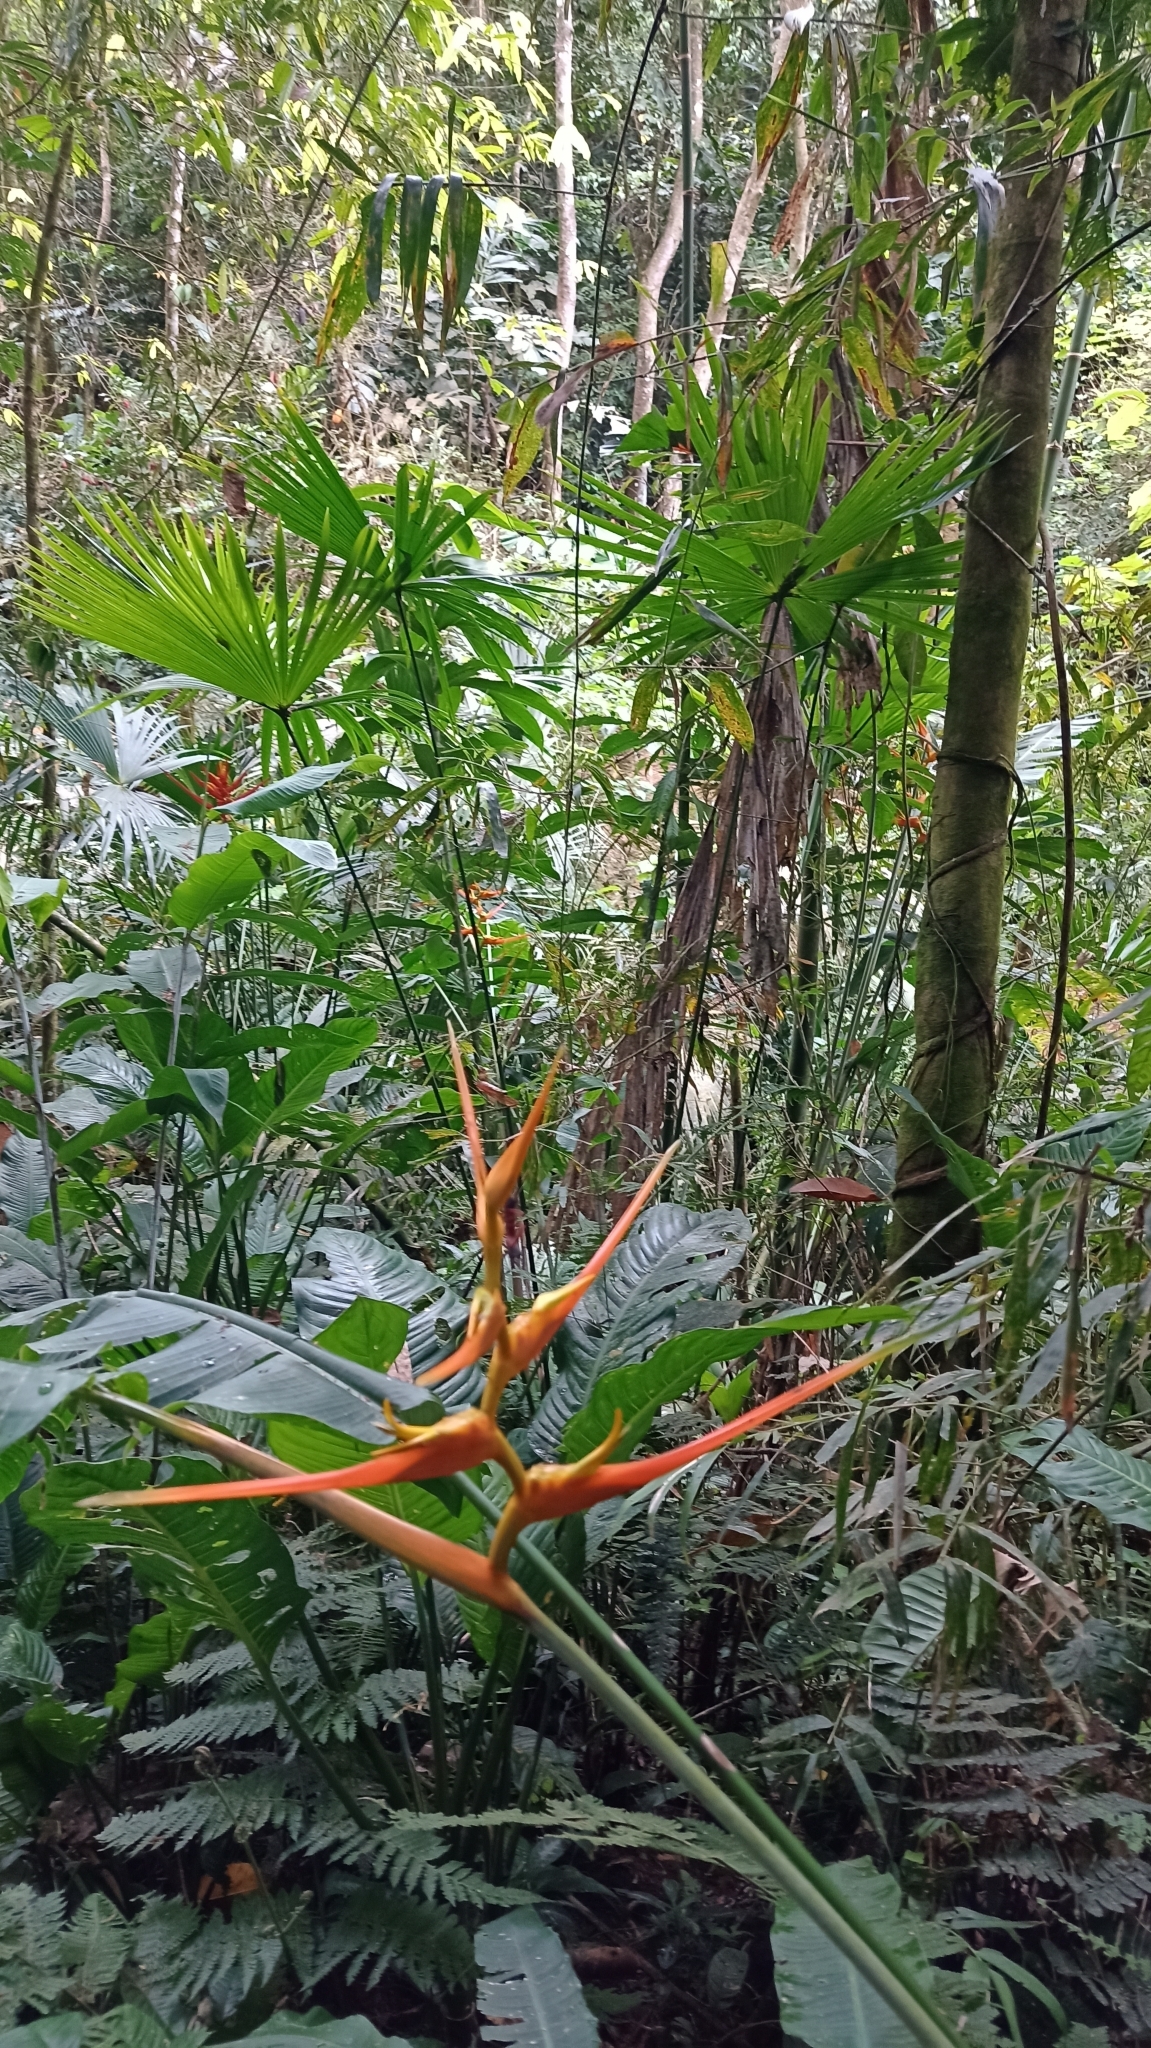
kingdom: Plantae
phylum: Tracheophyta
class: Liliopsida
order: Zingiberales
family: Heliconiaceae
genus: Heliconia
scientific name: Heliconia latispatha
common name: Expanded lobsterclaw
